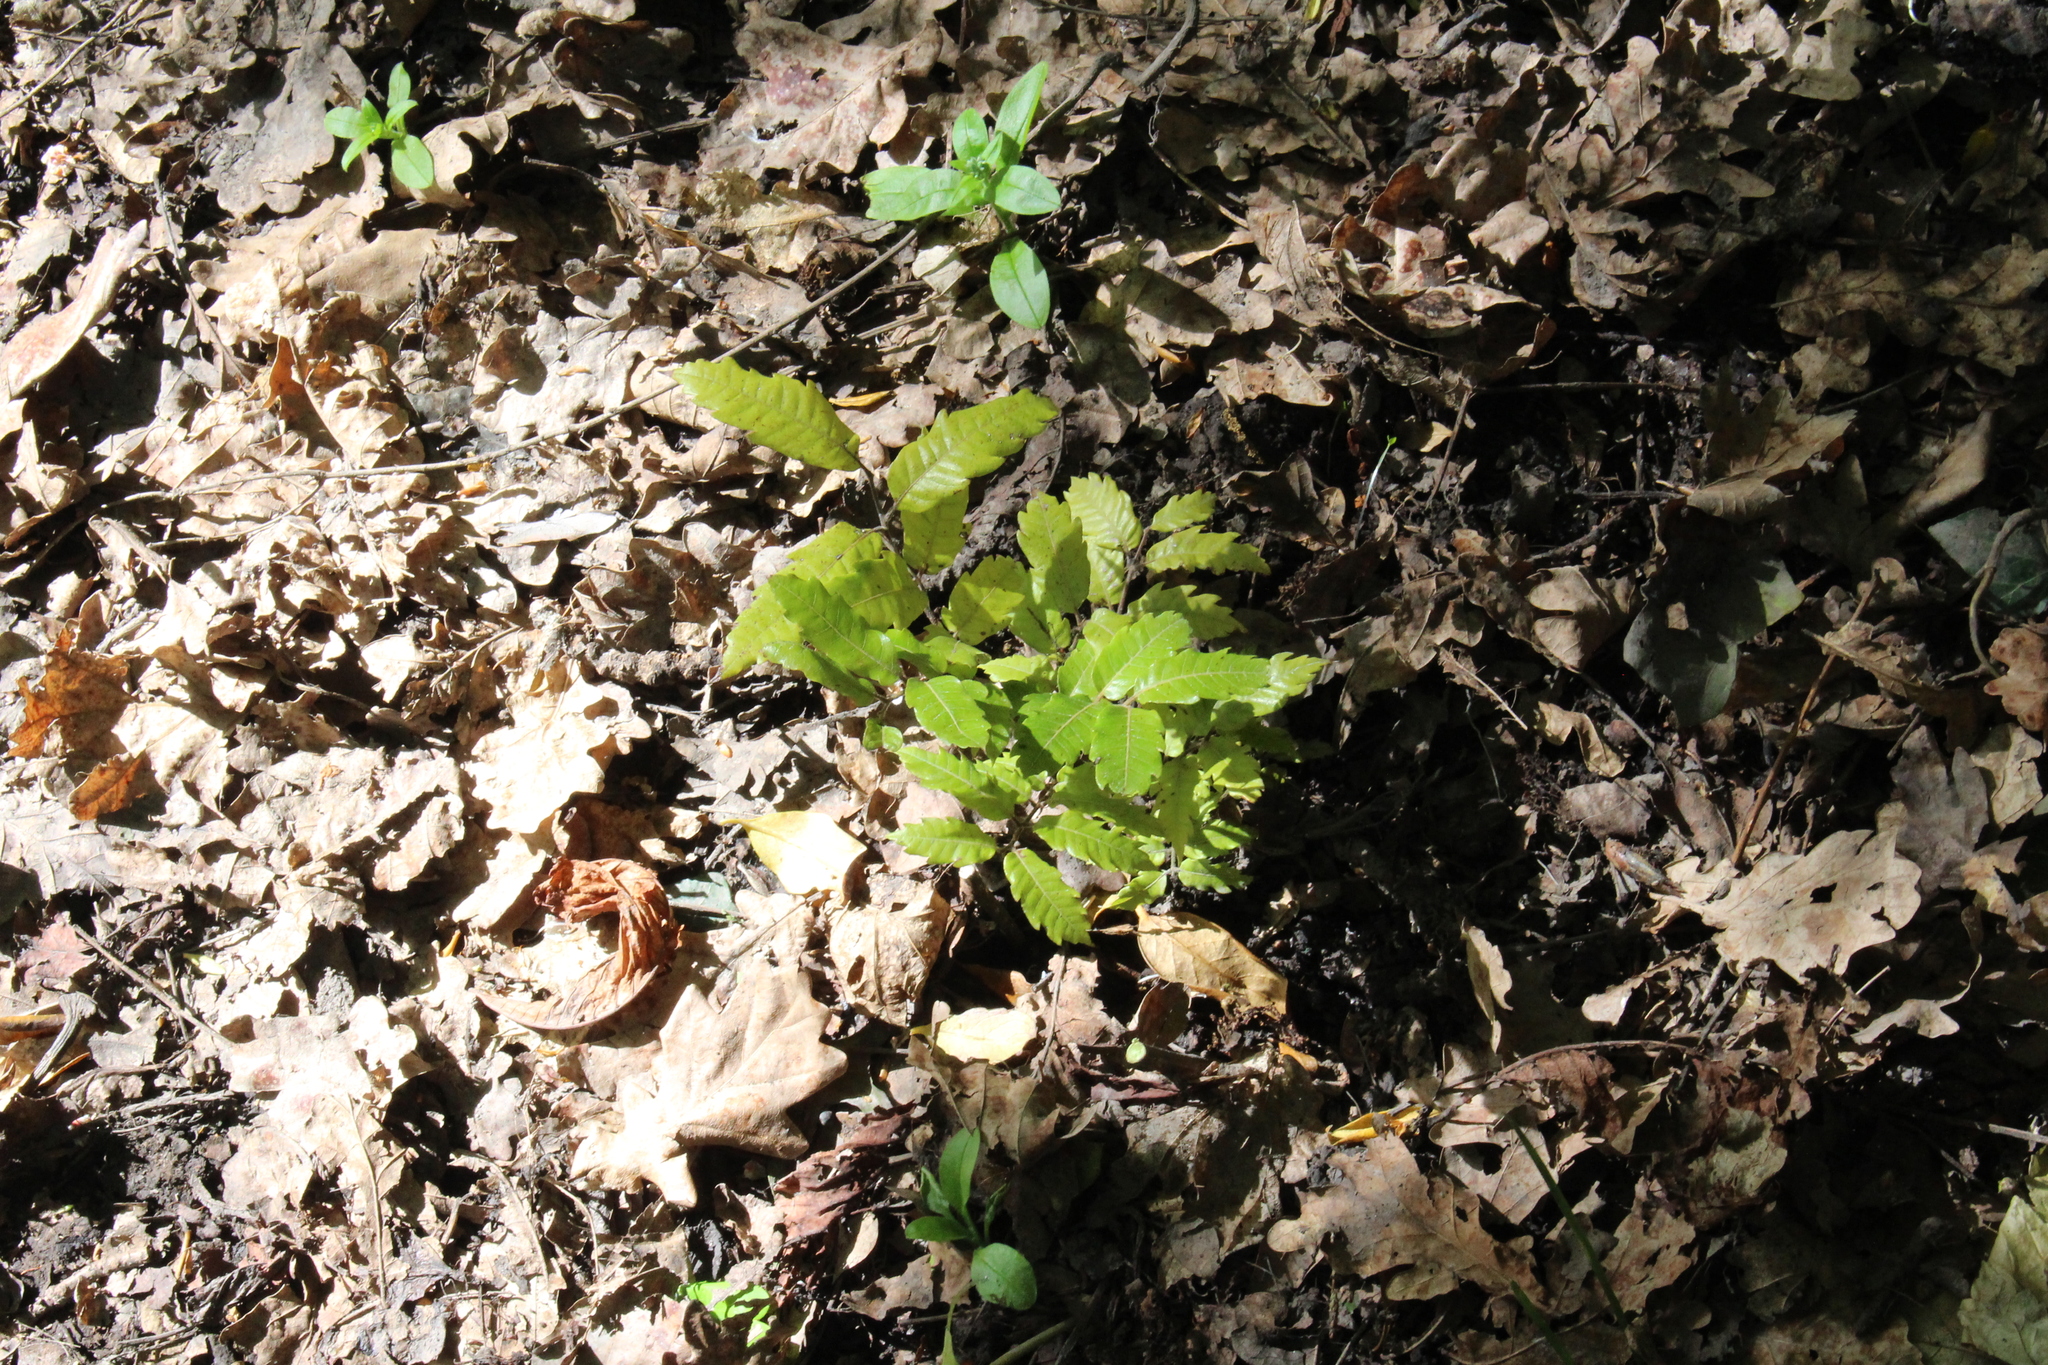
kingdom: Plantae
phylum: Tracheophyta
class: Magnoliopsida
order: Sapindales
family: Sapindaceae
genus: Alectryon
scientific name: Alectryon excelsus
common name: Three kings titoki
